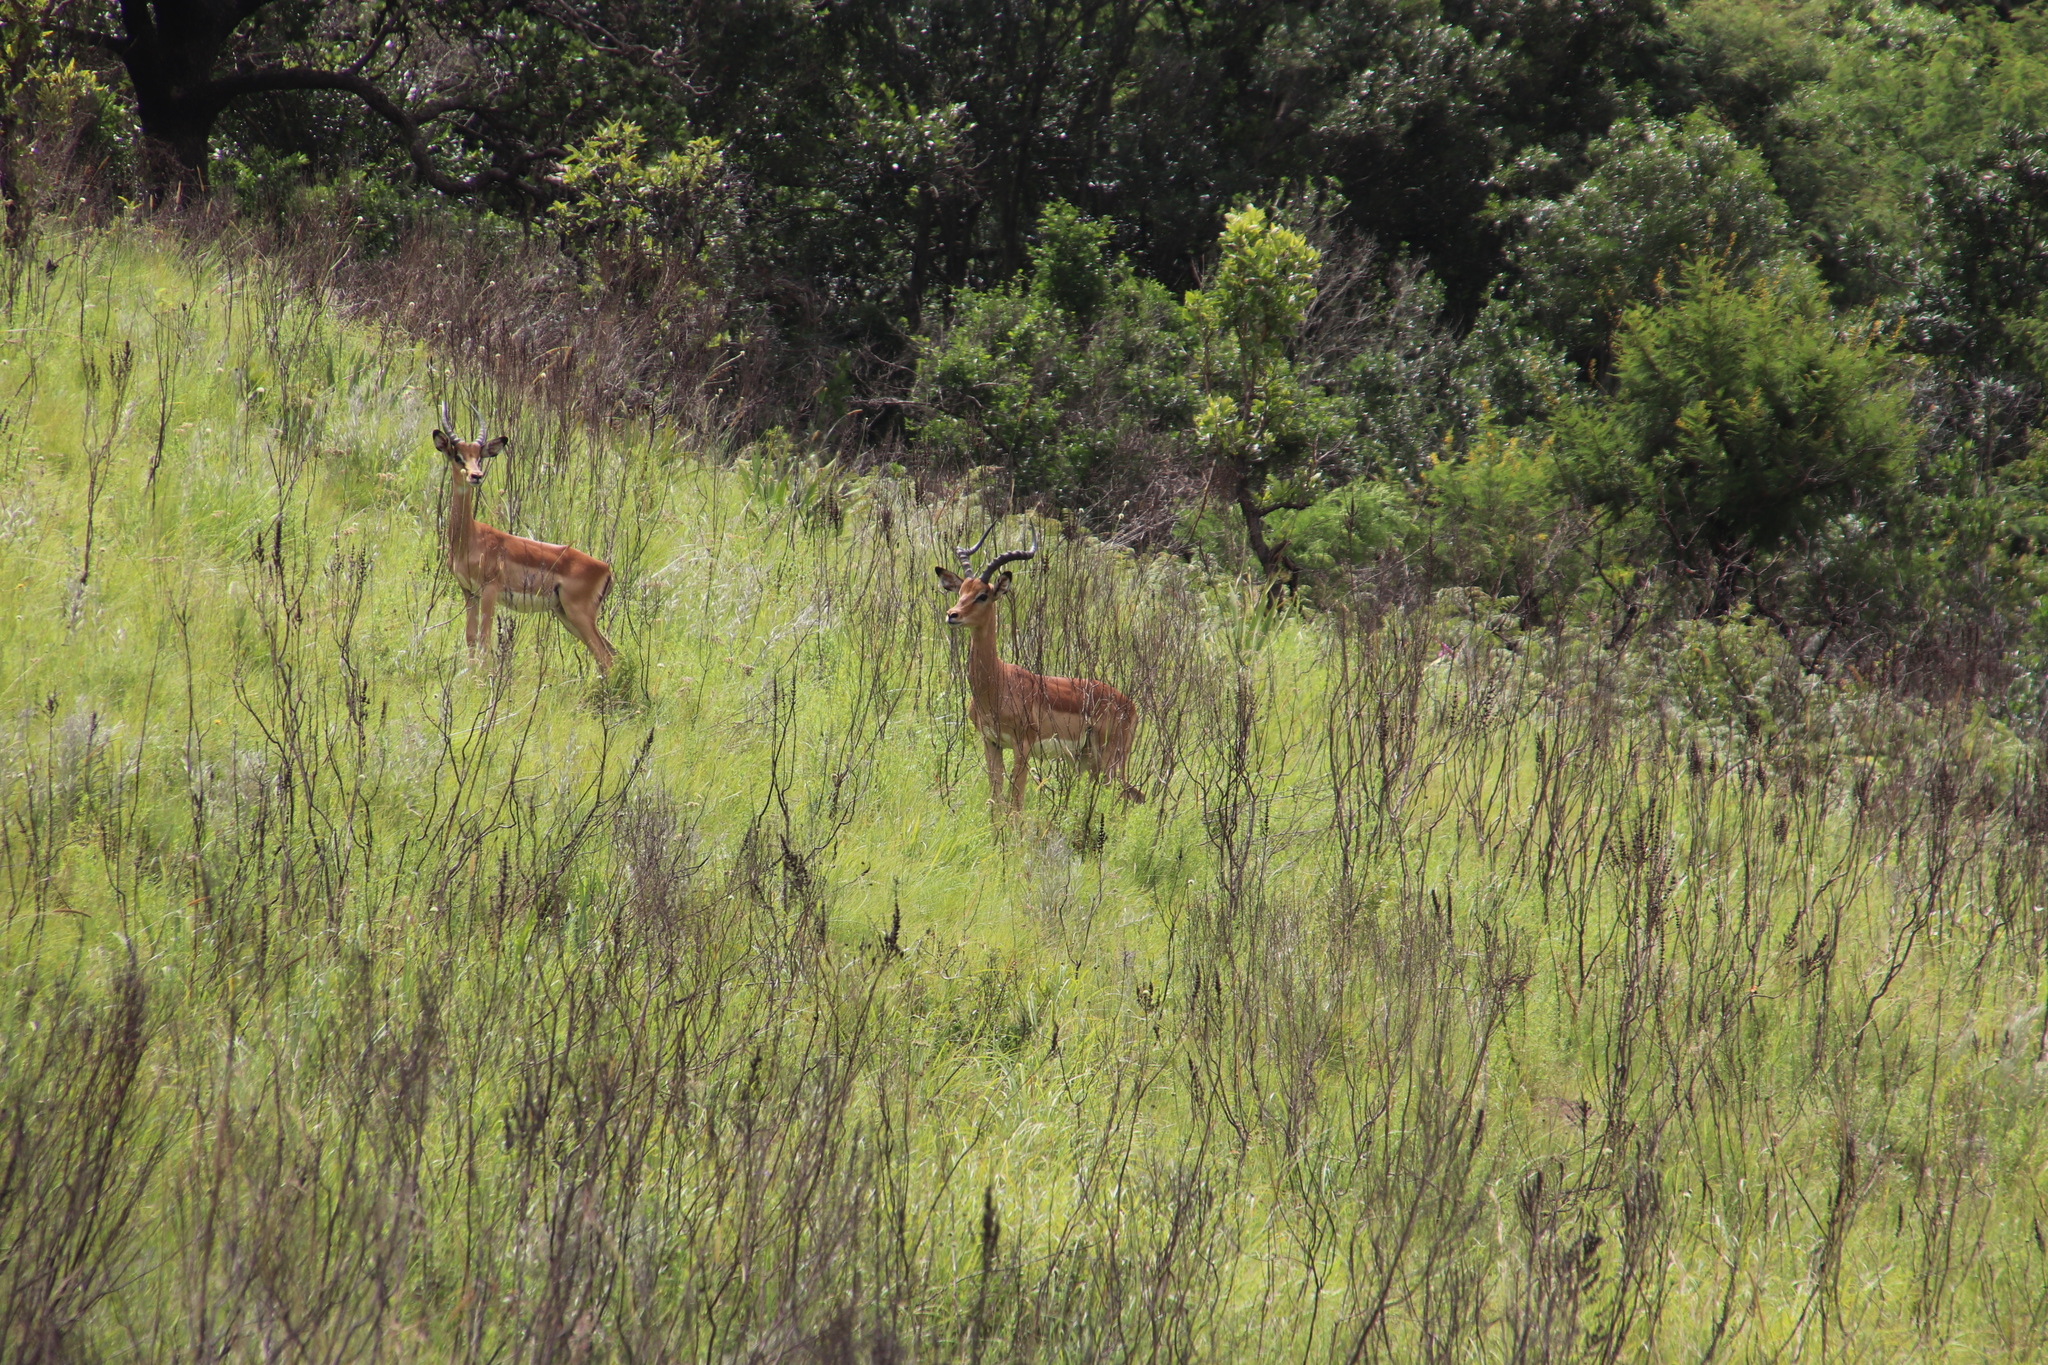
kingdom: Animalia
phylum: Chordata
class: Mammalia
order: Artiodactyla
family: Bovidae
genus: Aepyceros
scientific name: Aepyceros melampus
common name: Impala
